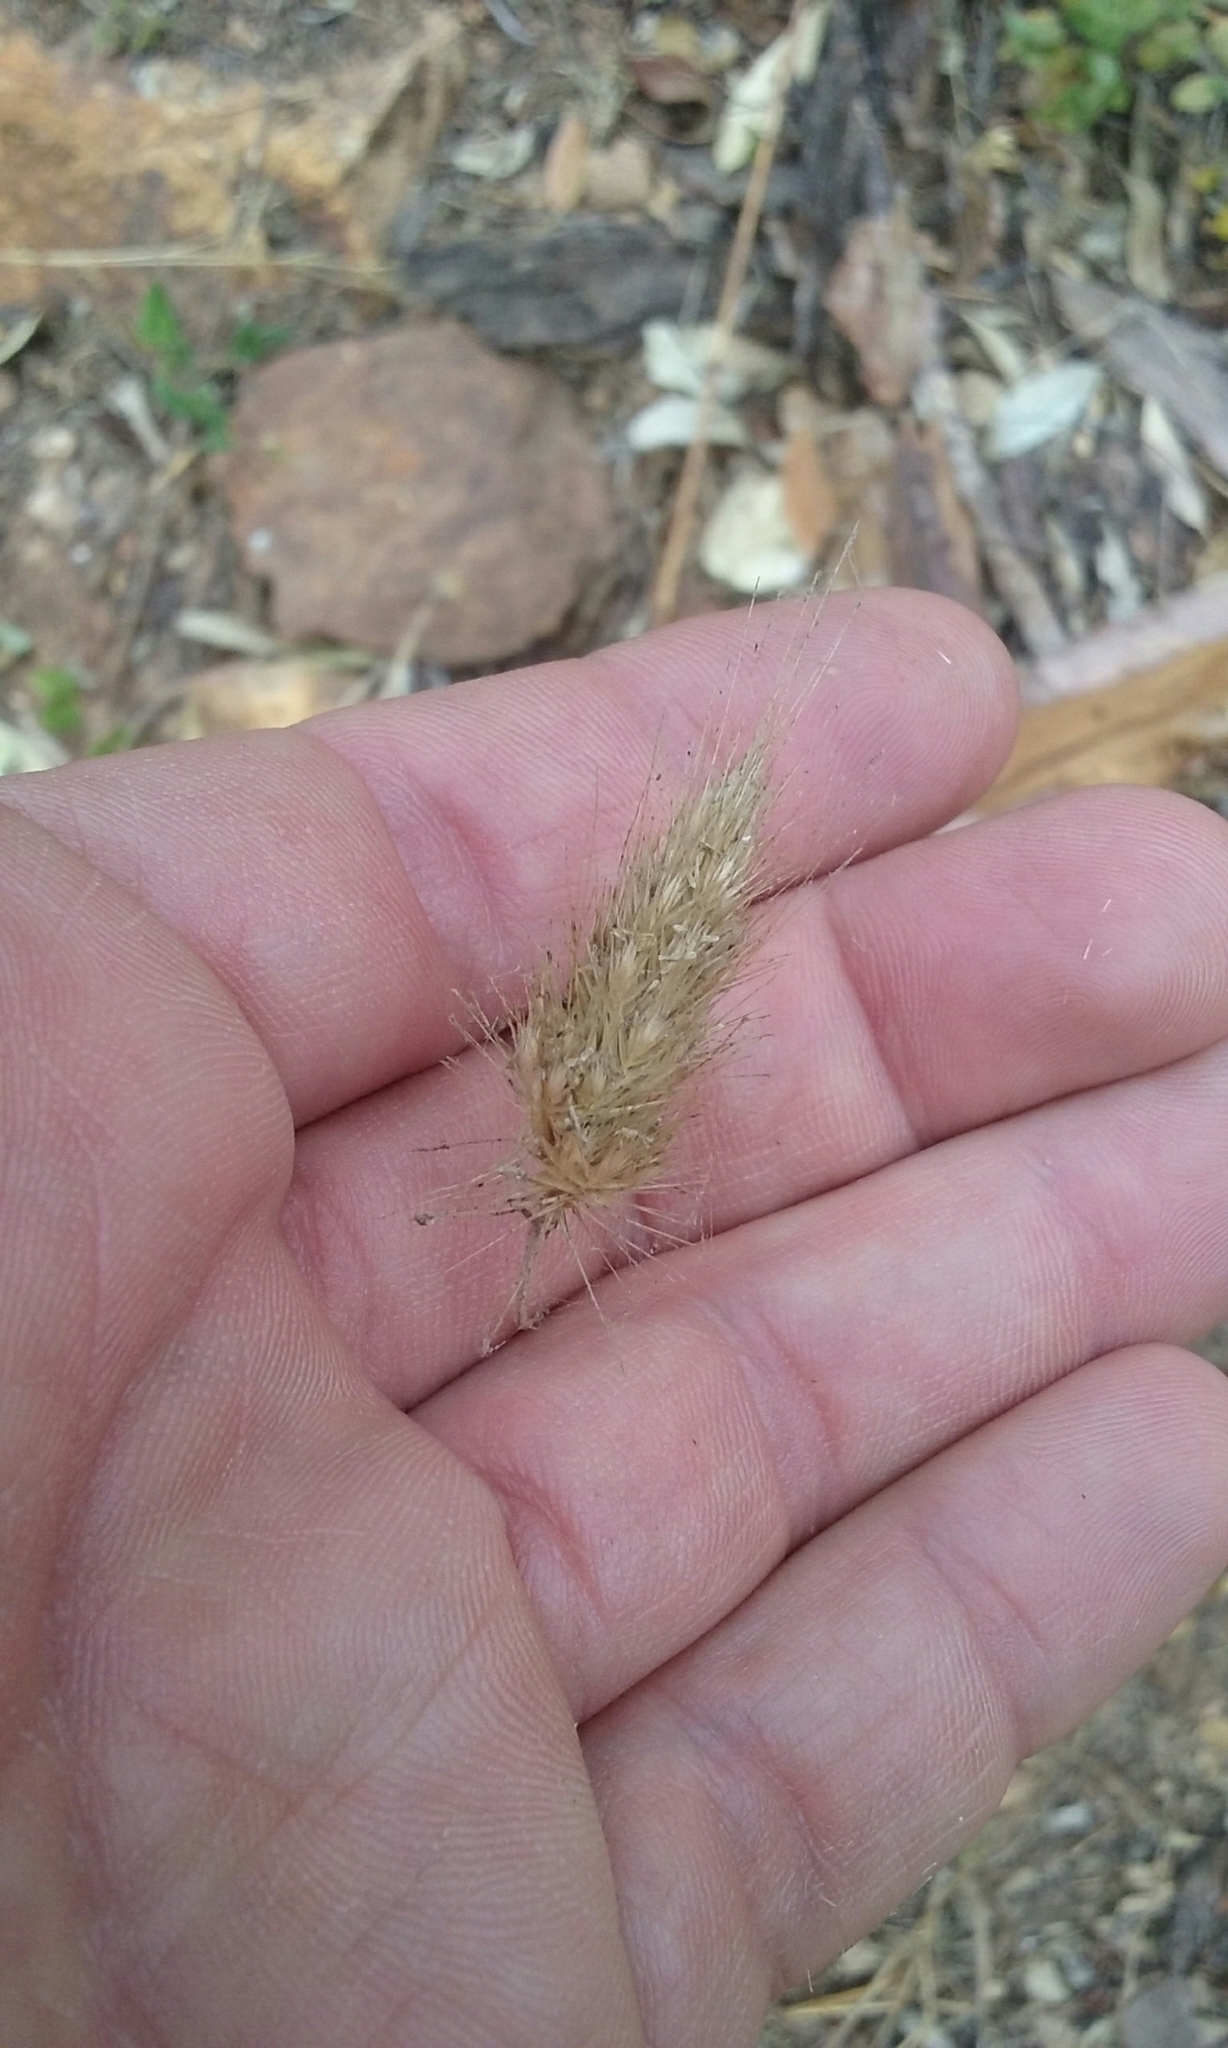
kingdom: Plantae
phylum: Tracheophyta
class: Liliopsida
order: Poales
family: Poaceae
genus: Cynosurus
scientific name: Cynosurus echinatus
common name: Rough dog's-tail
